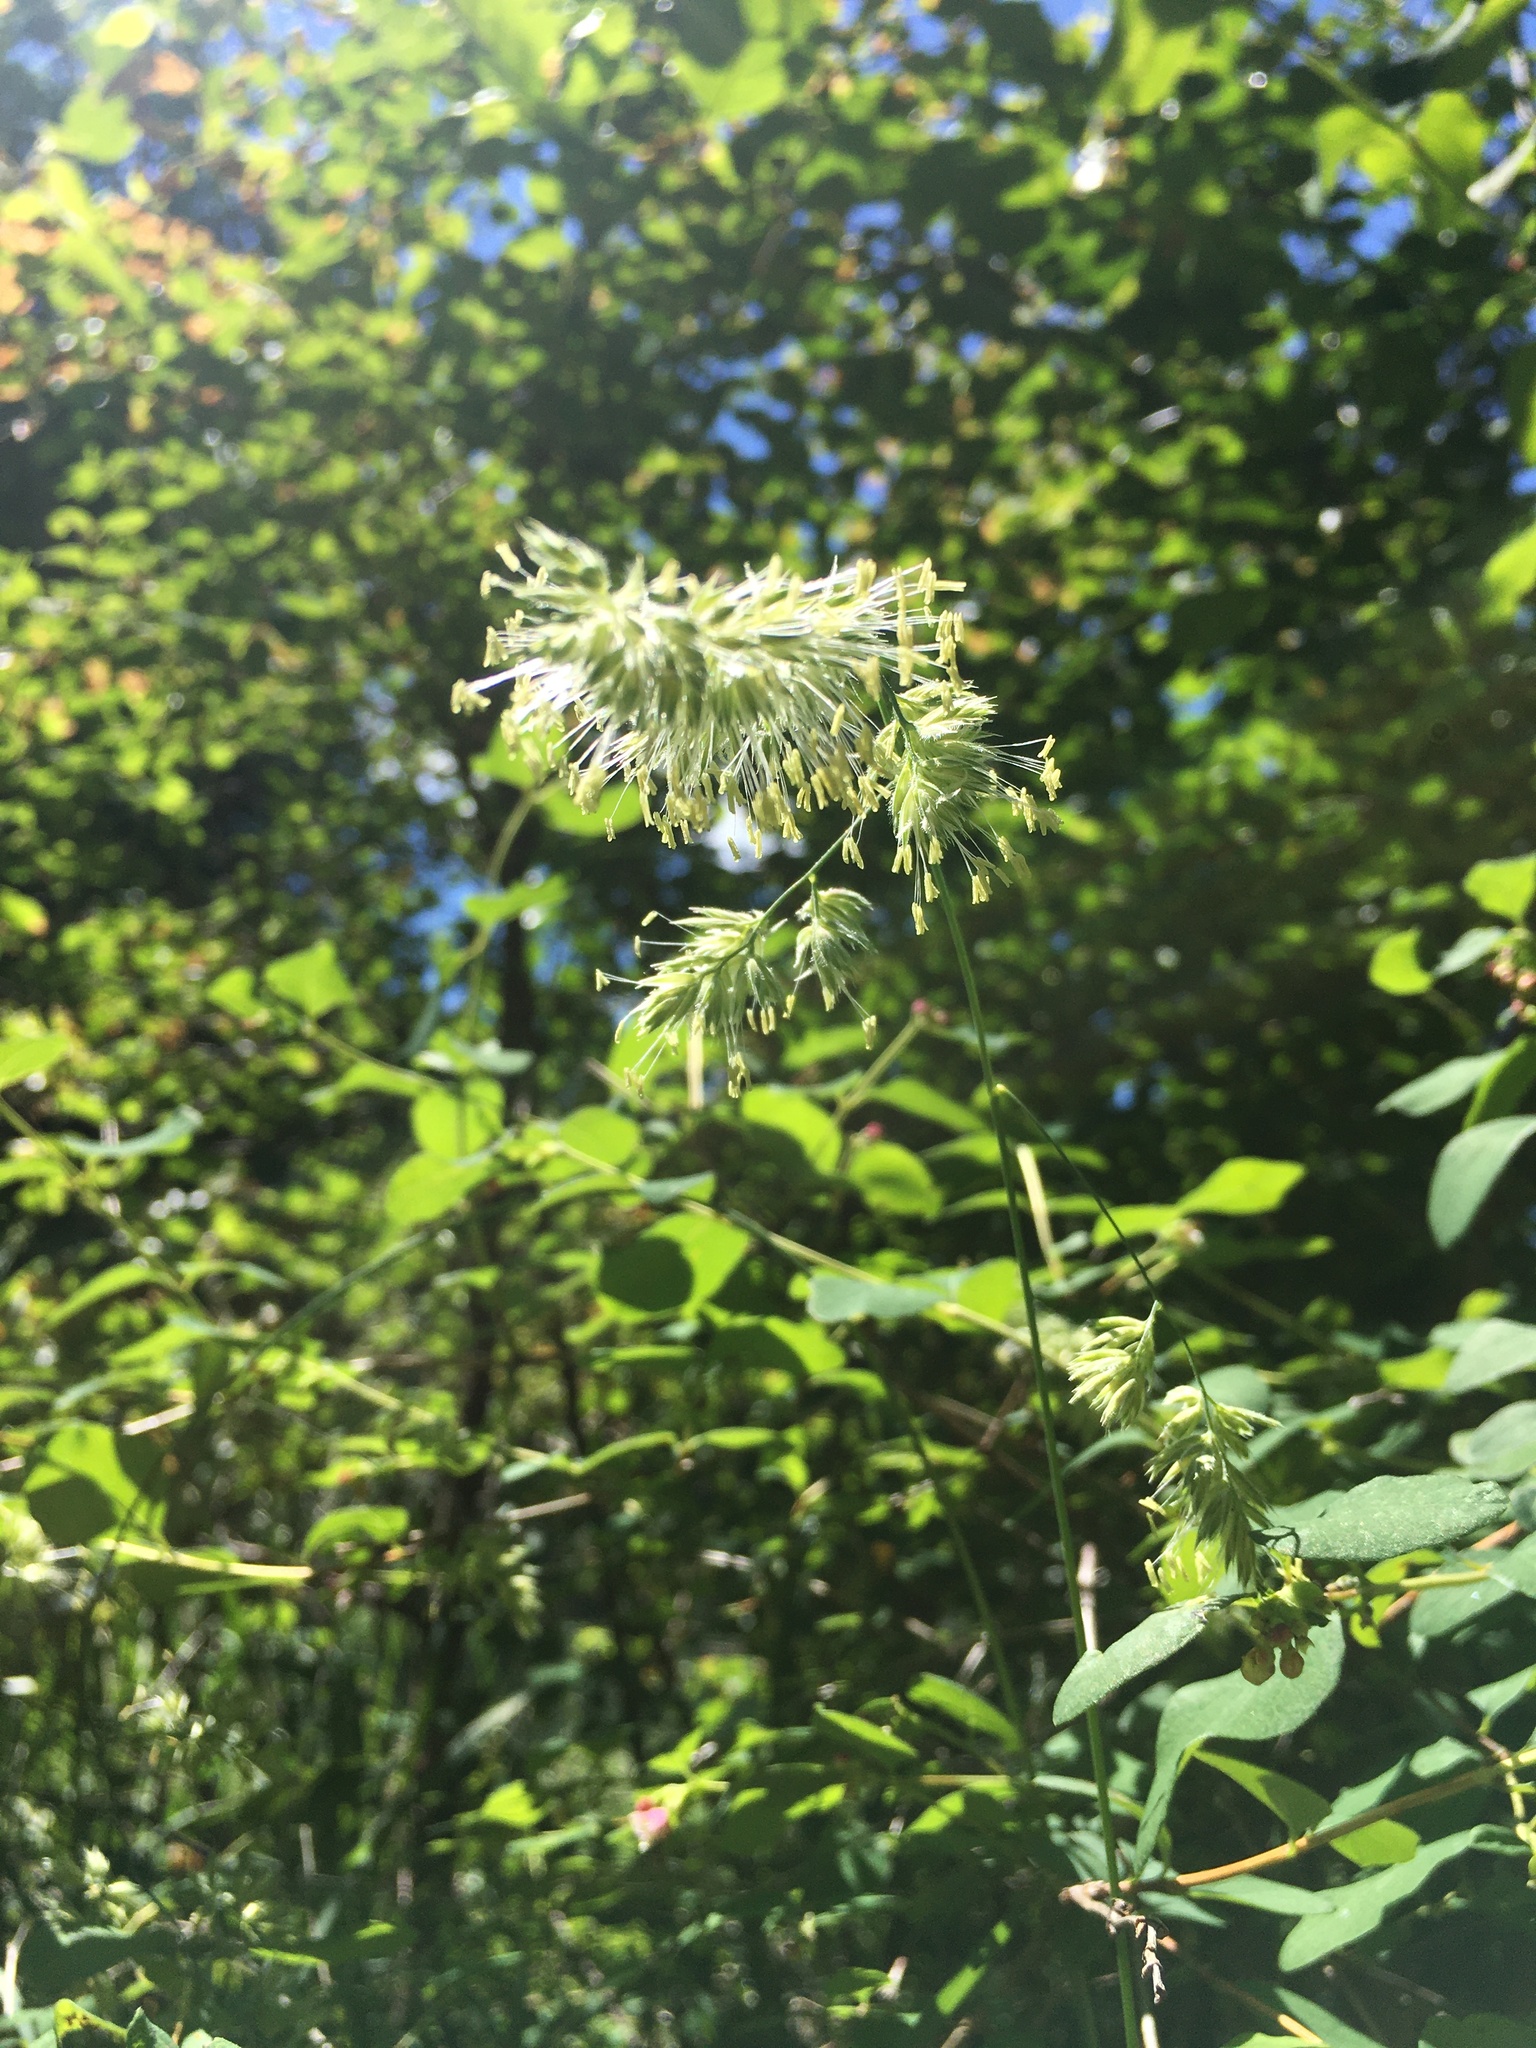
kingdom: Plantae
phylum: Tracheophyta
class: Liliopsida
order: Poales
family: Poaceae
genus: Dactylis
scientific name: Dactylis glomerata
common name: Orchardgrass
